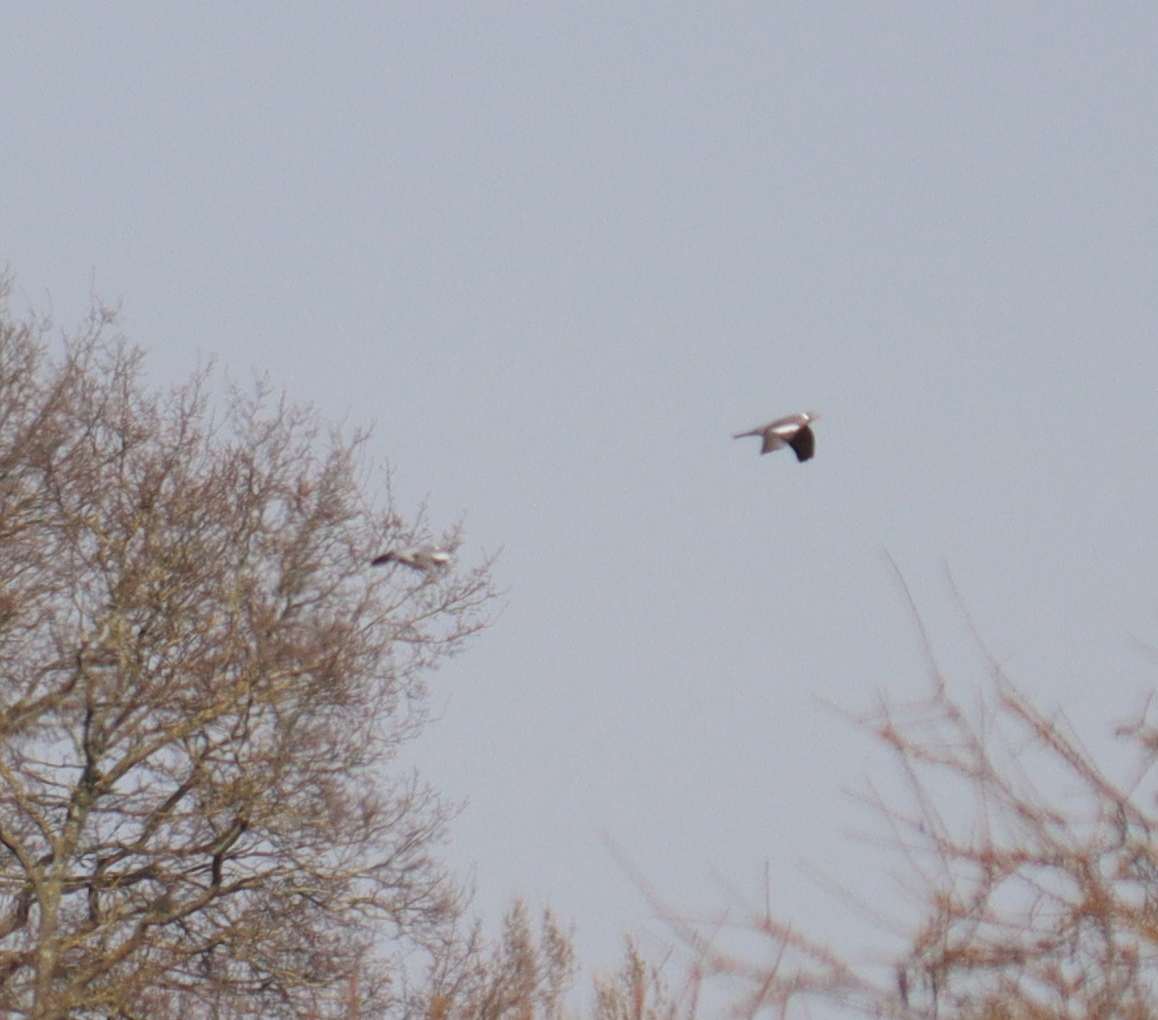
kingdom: Animalia
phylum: Chordata
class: Aves
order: Columbiformes
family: Columbidae
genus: Columba
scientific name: Columba palumbus
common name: Common wood pigeon
